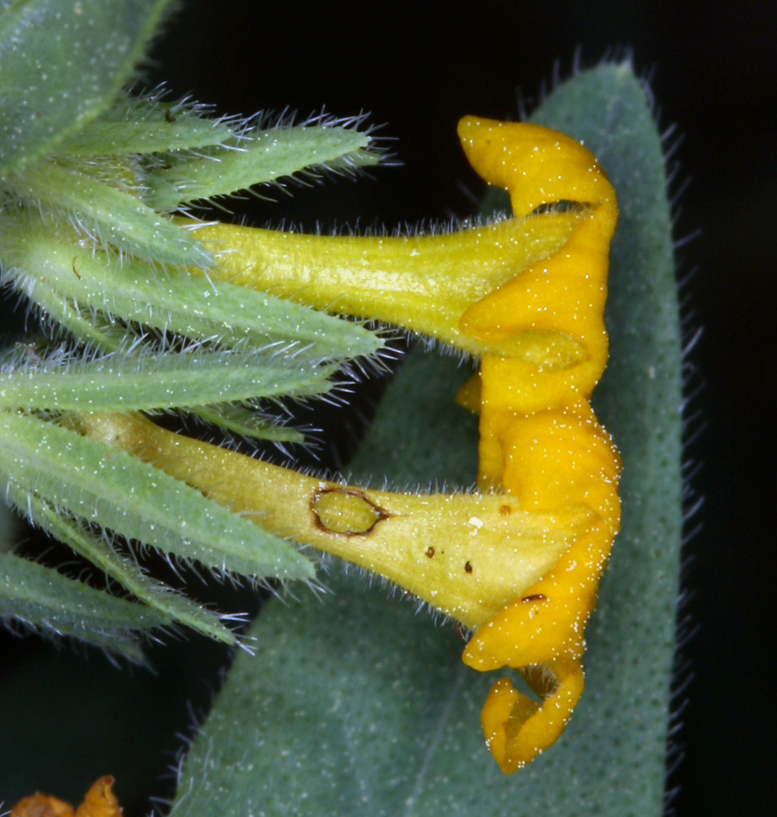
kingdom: Plantae
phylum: Tracheophyta
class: Magnoliopsida
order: Boraginales
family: Boraginaceae
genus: Lithospermum
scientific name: Lithospermum californicum
